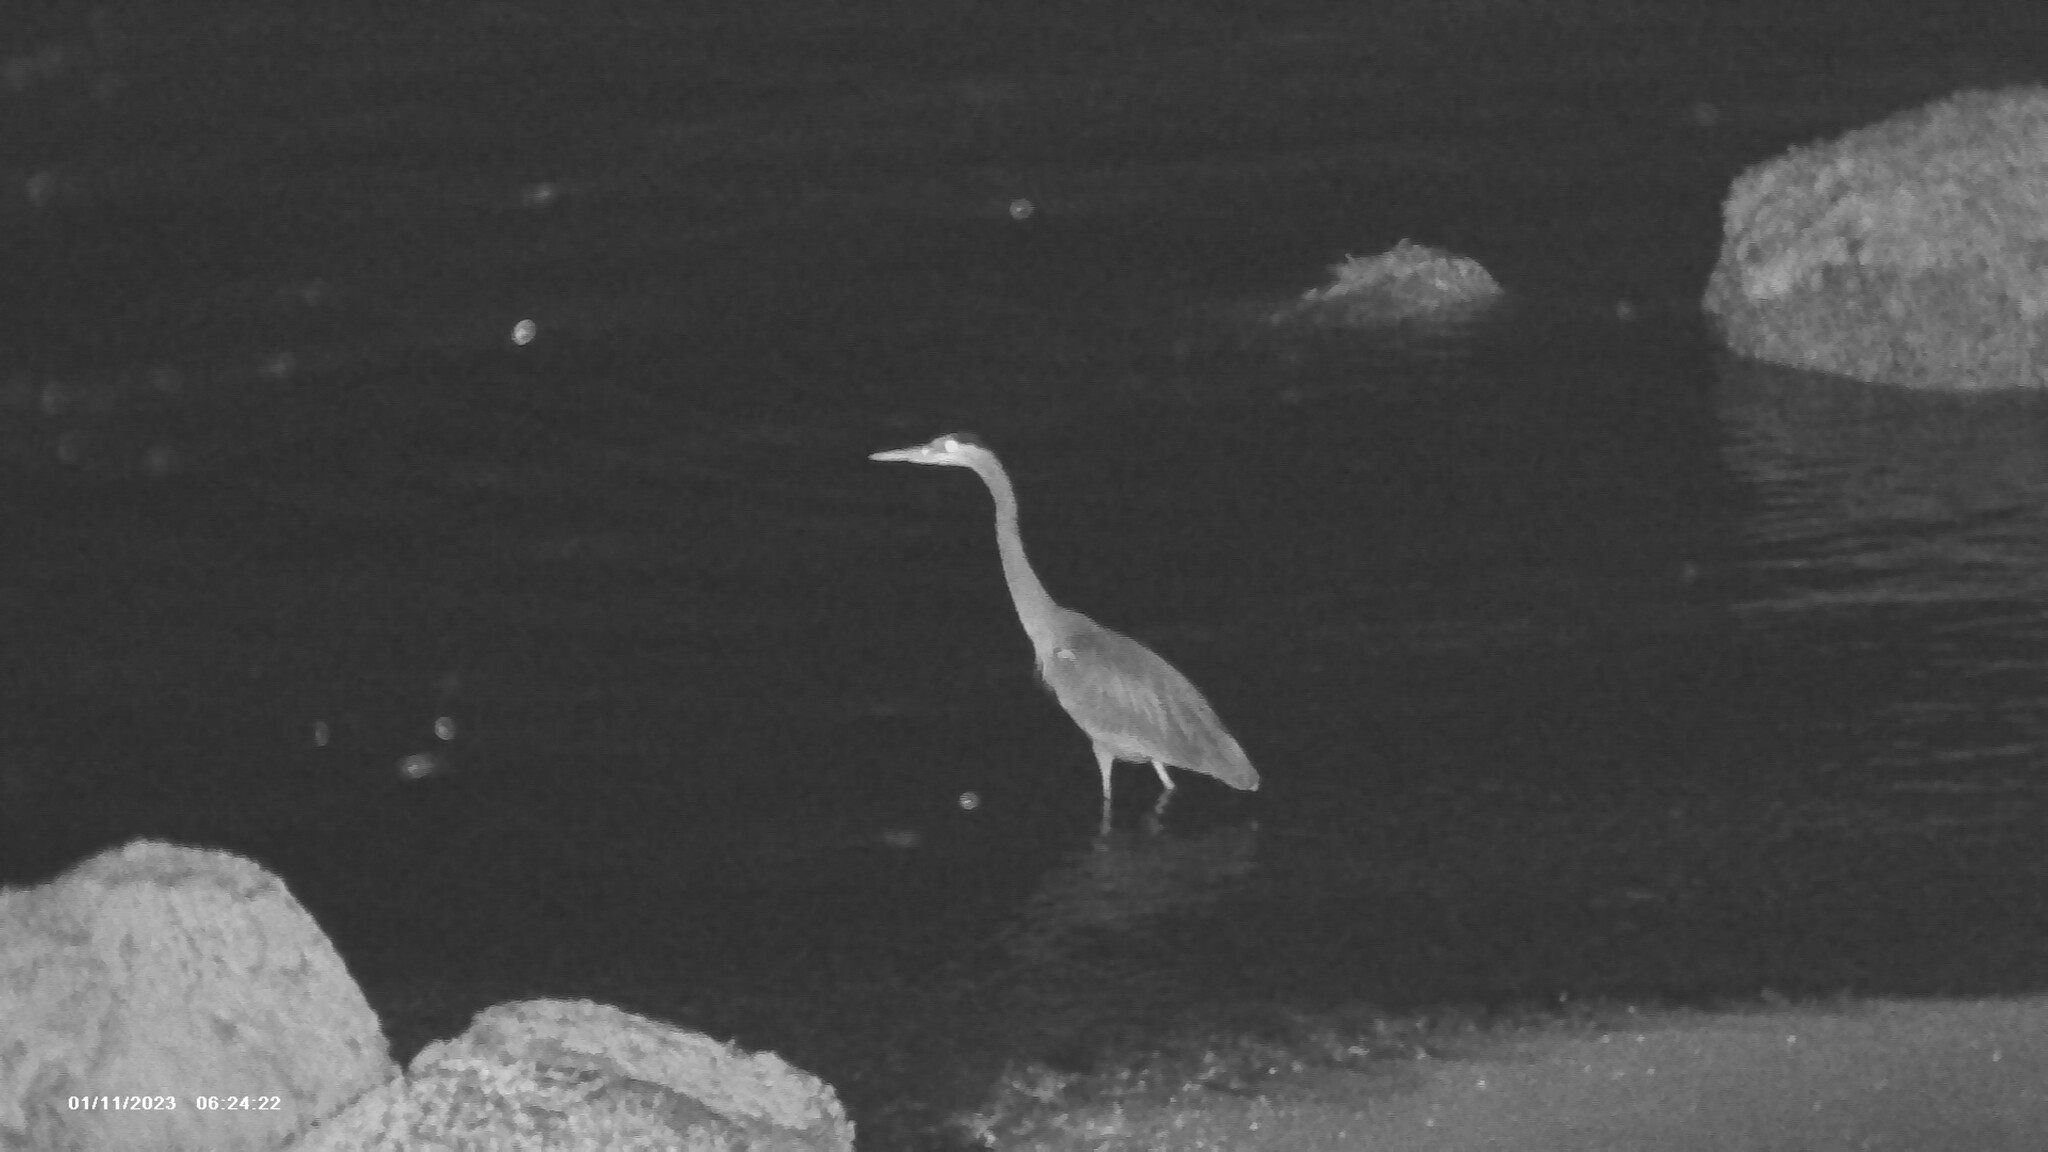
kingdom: Animalia
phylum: Chordata
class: Aves
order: Pelecaniformes
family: Ardeidae
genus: Ardea
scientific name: Ardea herodias
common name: Great blue heron
